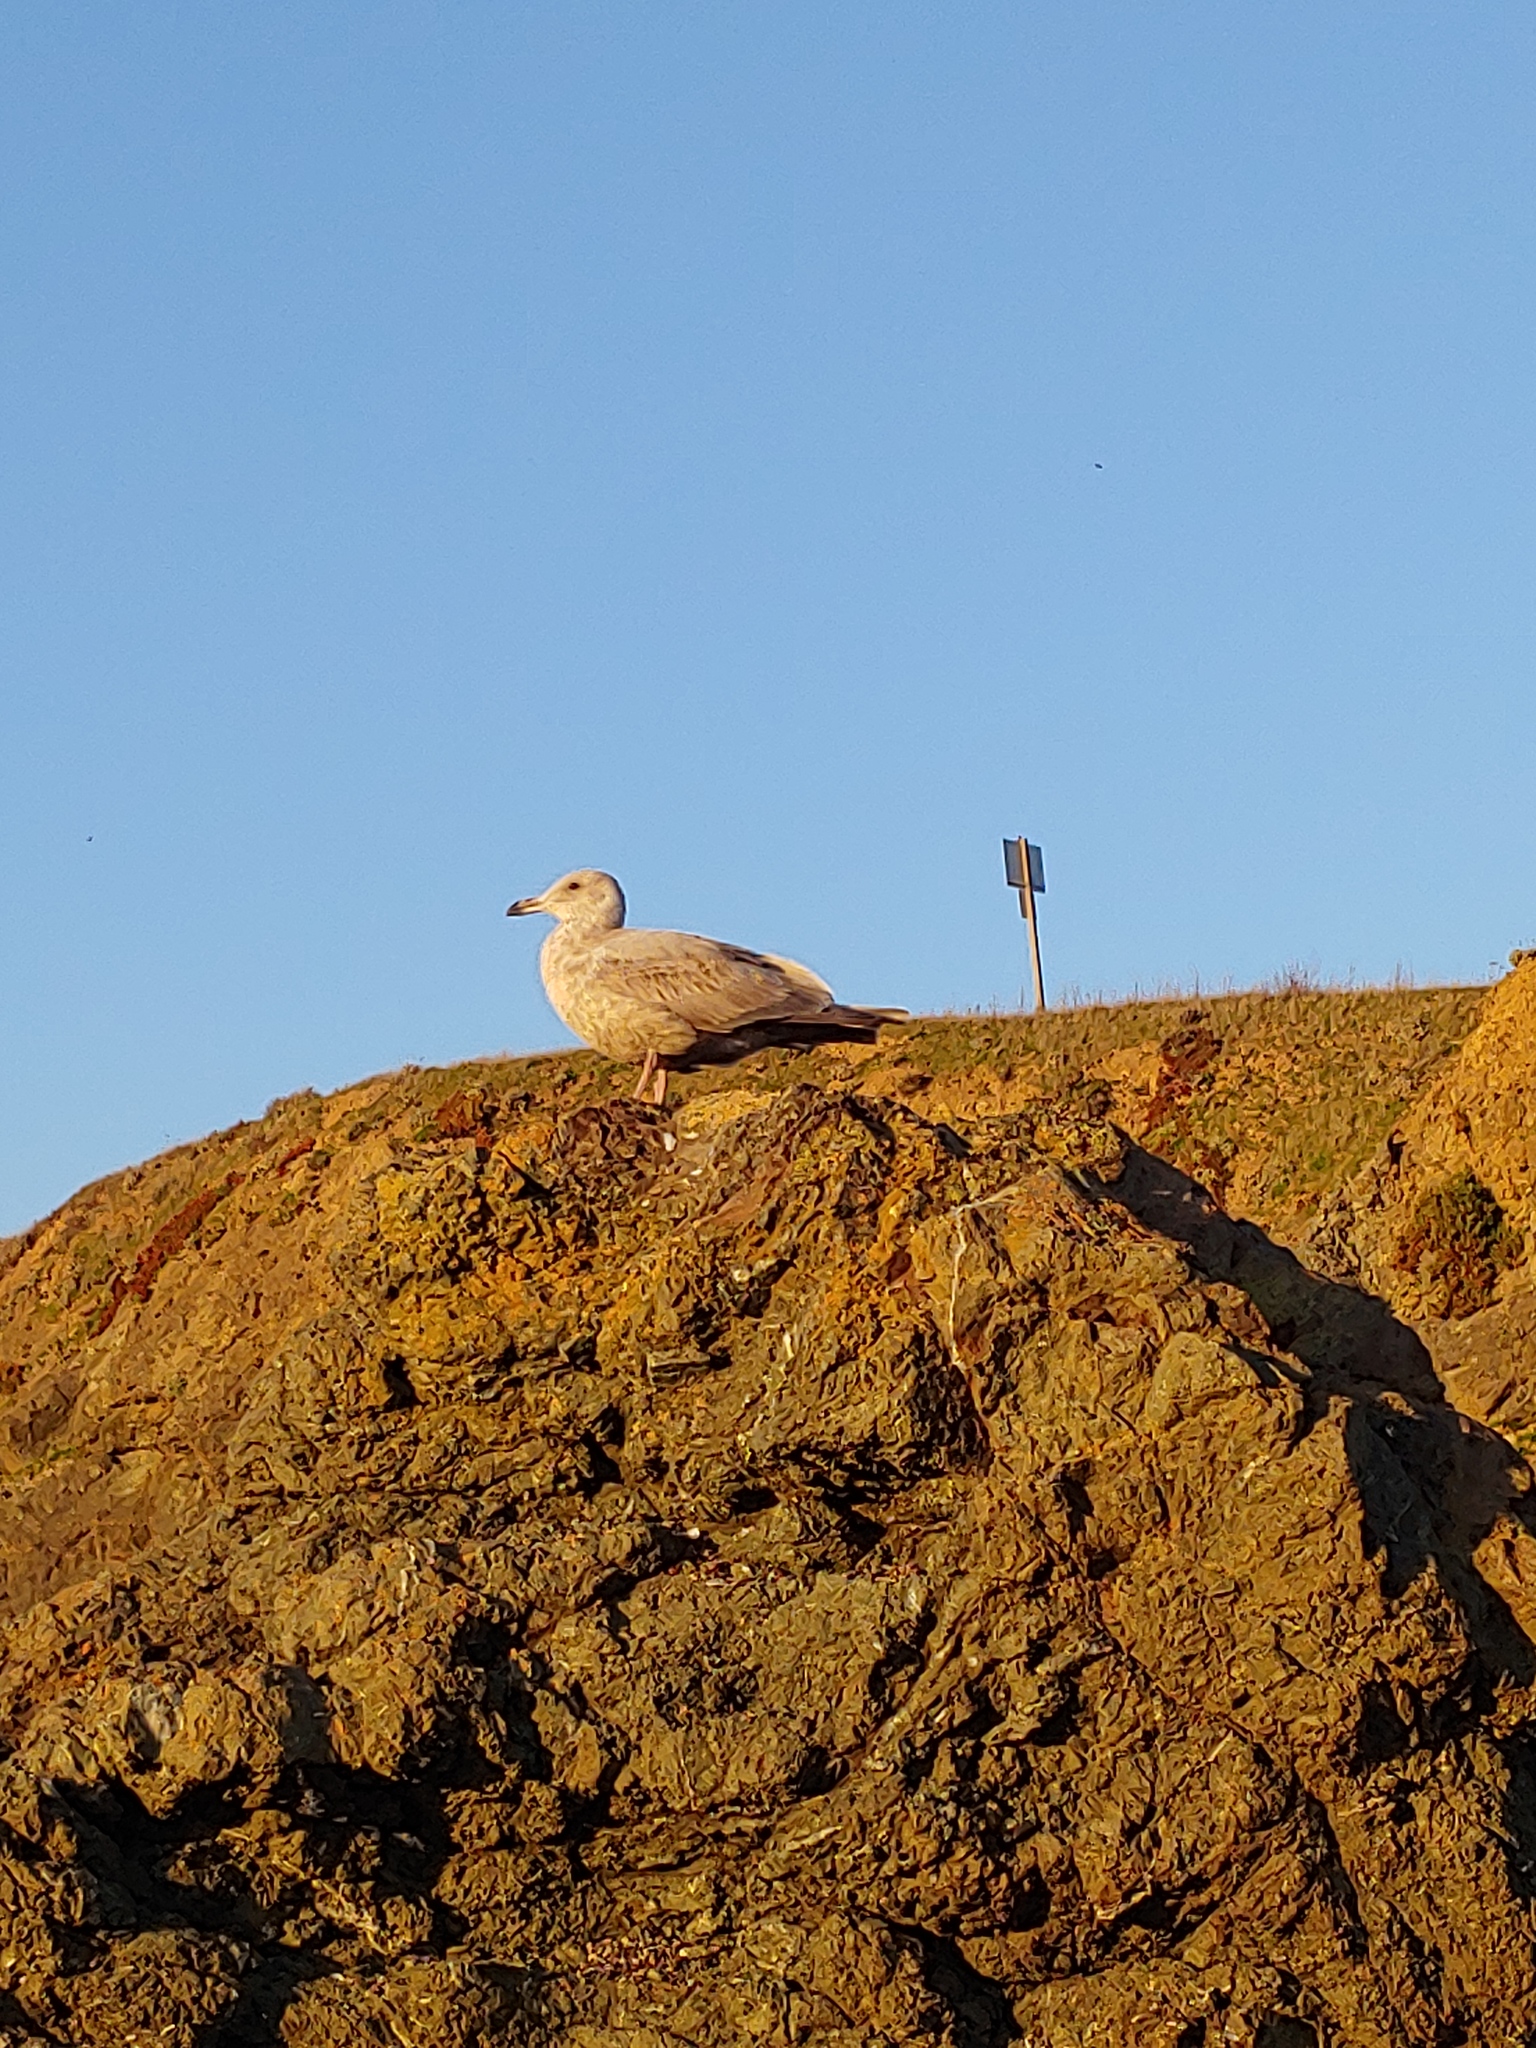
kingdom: Animalia
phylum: Chordata
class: Aves
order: Charadriiformes
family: Laridae
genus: Larus
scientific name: Larus
